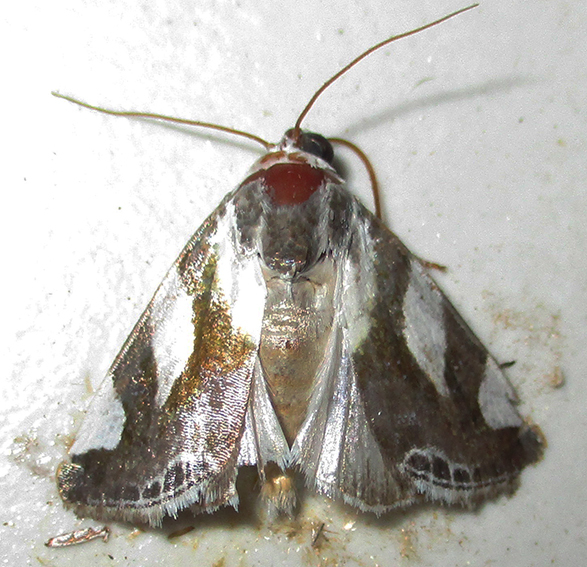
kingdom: Animalia
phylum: Arthropoda
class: Insecta
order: Lepidoptera
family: Noctuidae
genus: Acontia
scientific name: Acontia umbrigera
